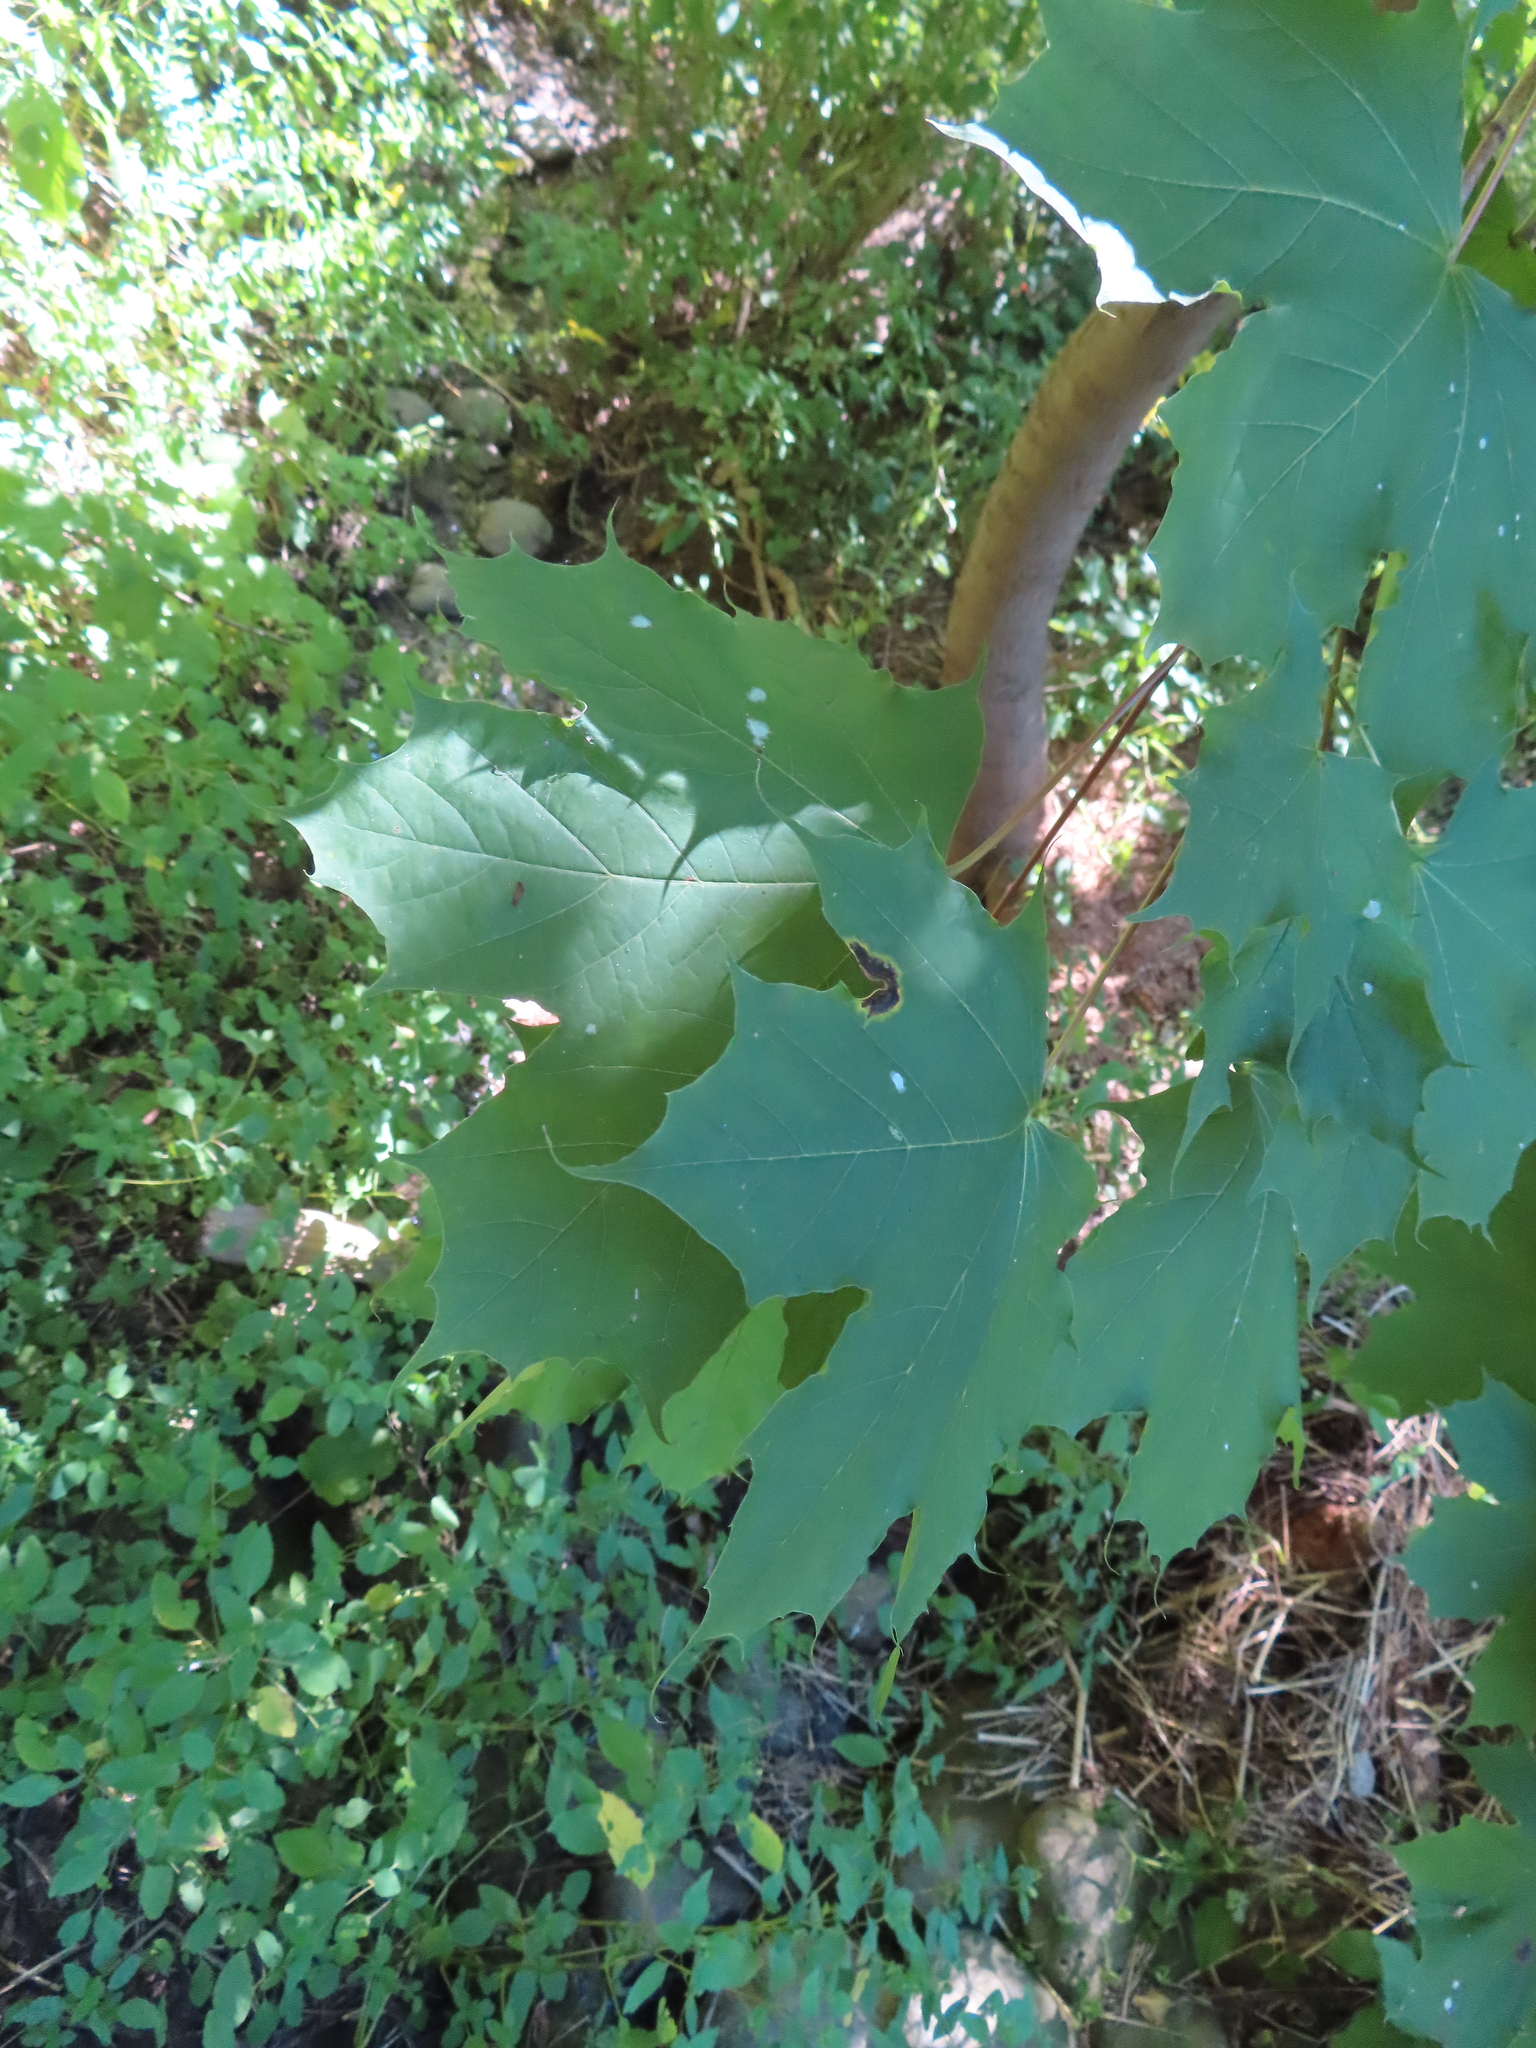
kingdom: Plantae
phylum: Tracheophyta
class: Magnoliopsida
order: Sapindales
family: Sapindaceae
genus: Acer
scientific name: Acer platanoides
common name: Norway maple
